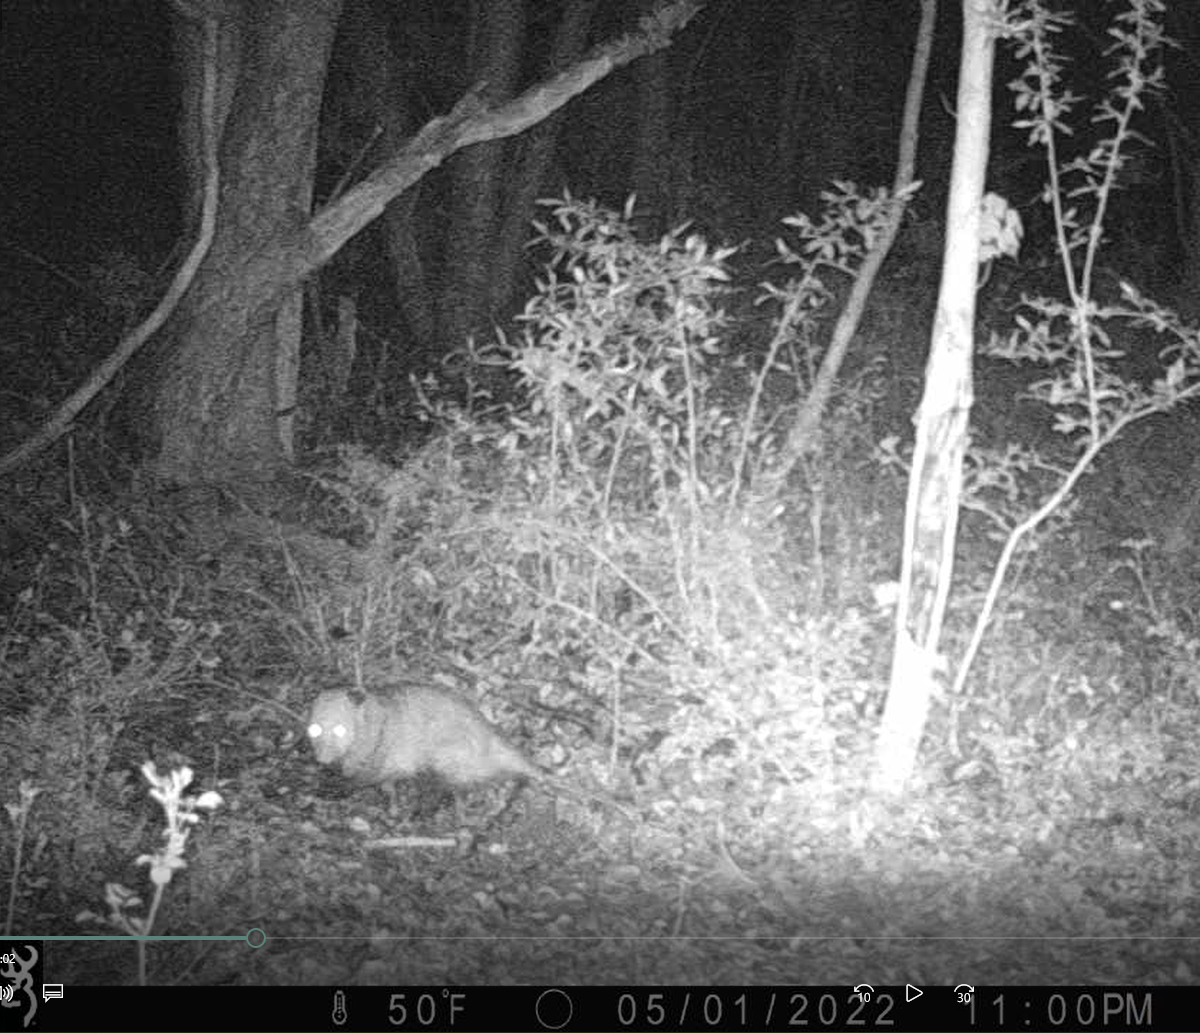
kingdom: Animalia
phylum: Chordata
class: Mammalia
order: Didelphimorphia
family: Didelphidae
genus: Didelphis
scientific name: Didelphis virginiana
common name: Virginia opossum
